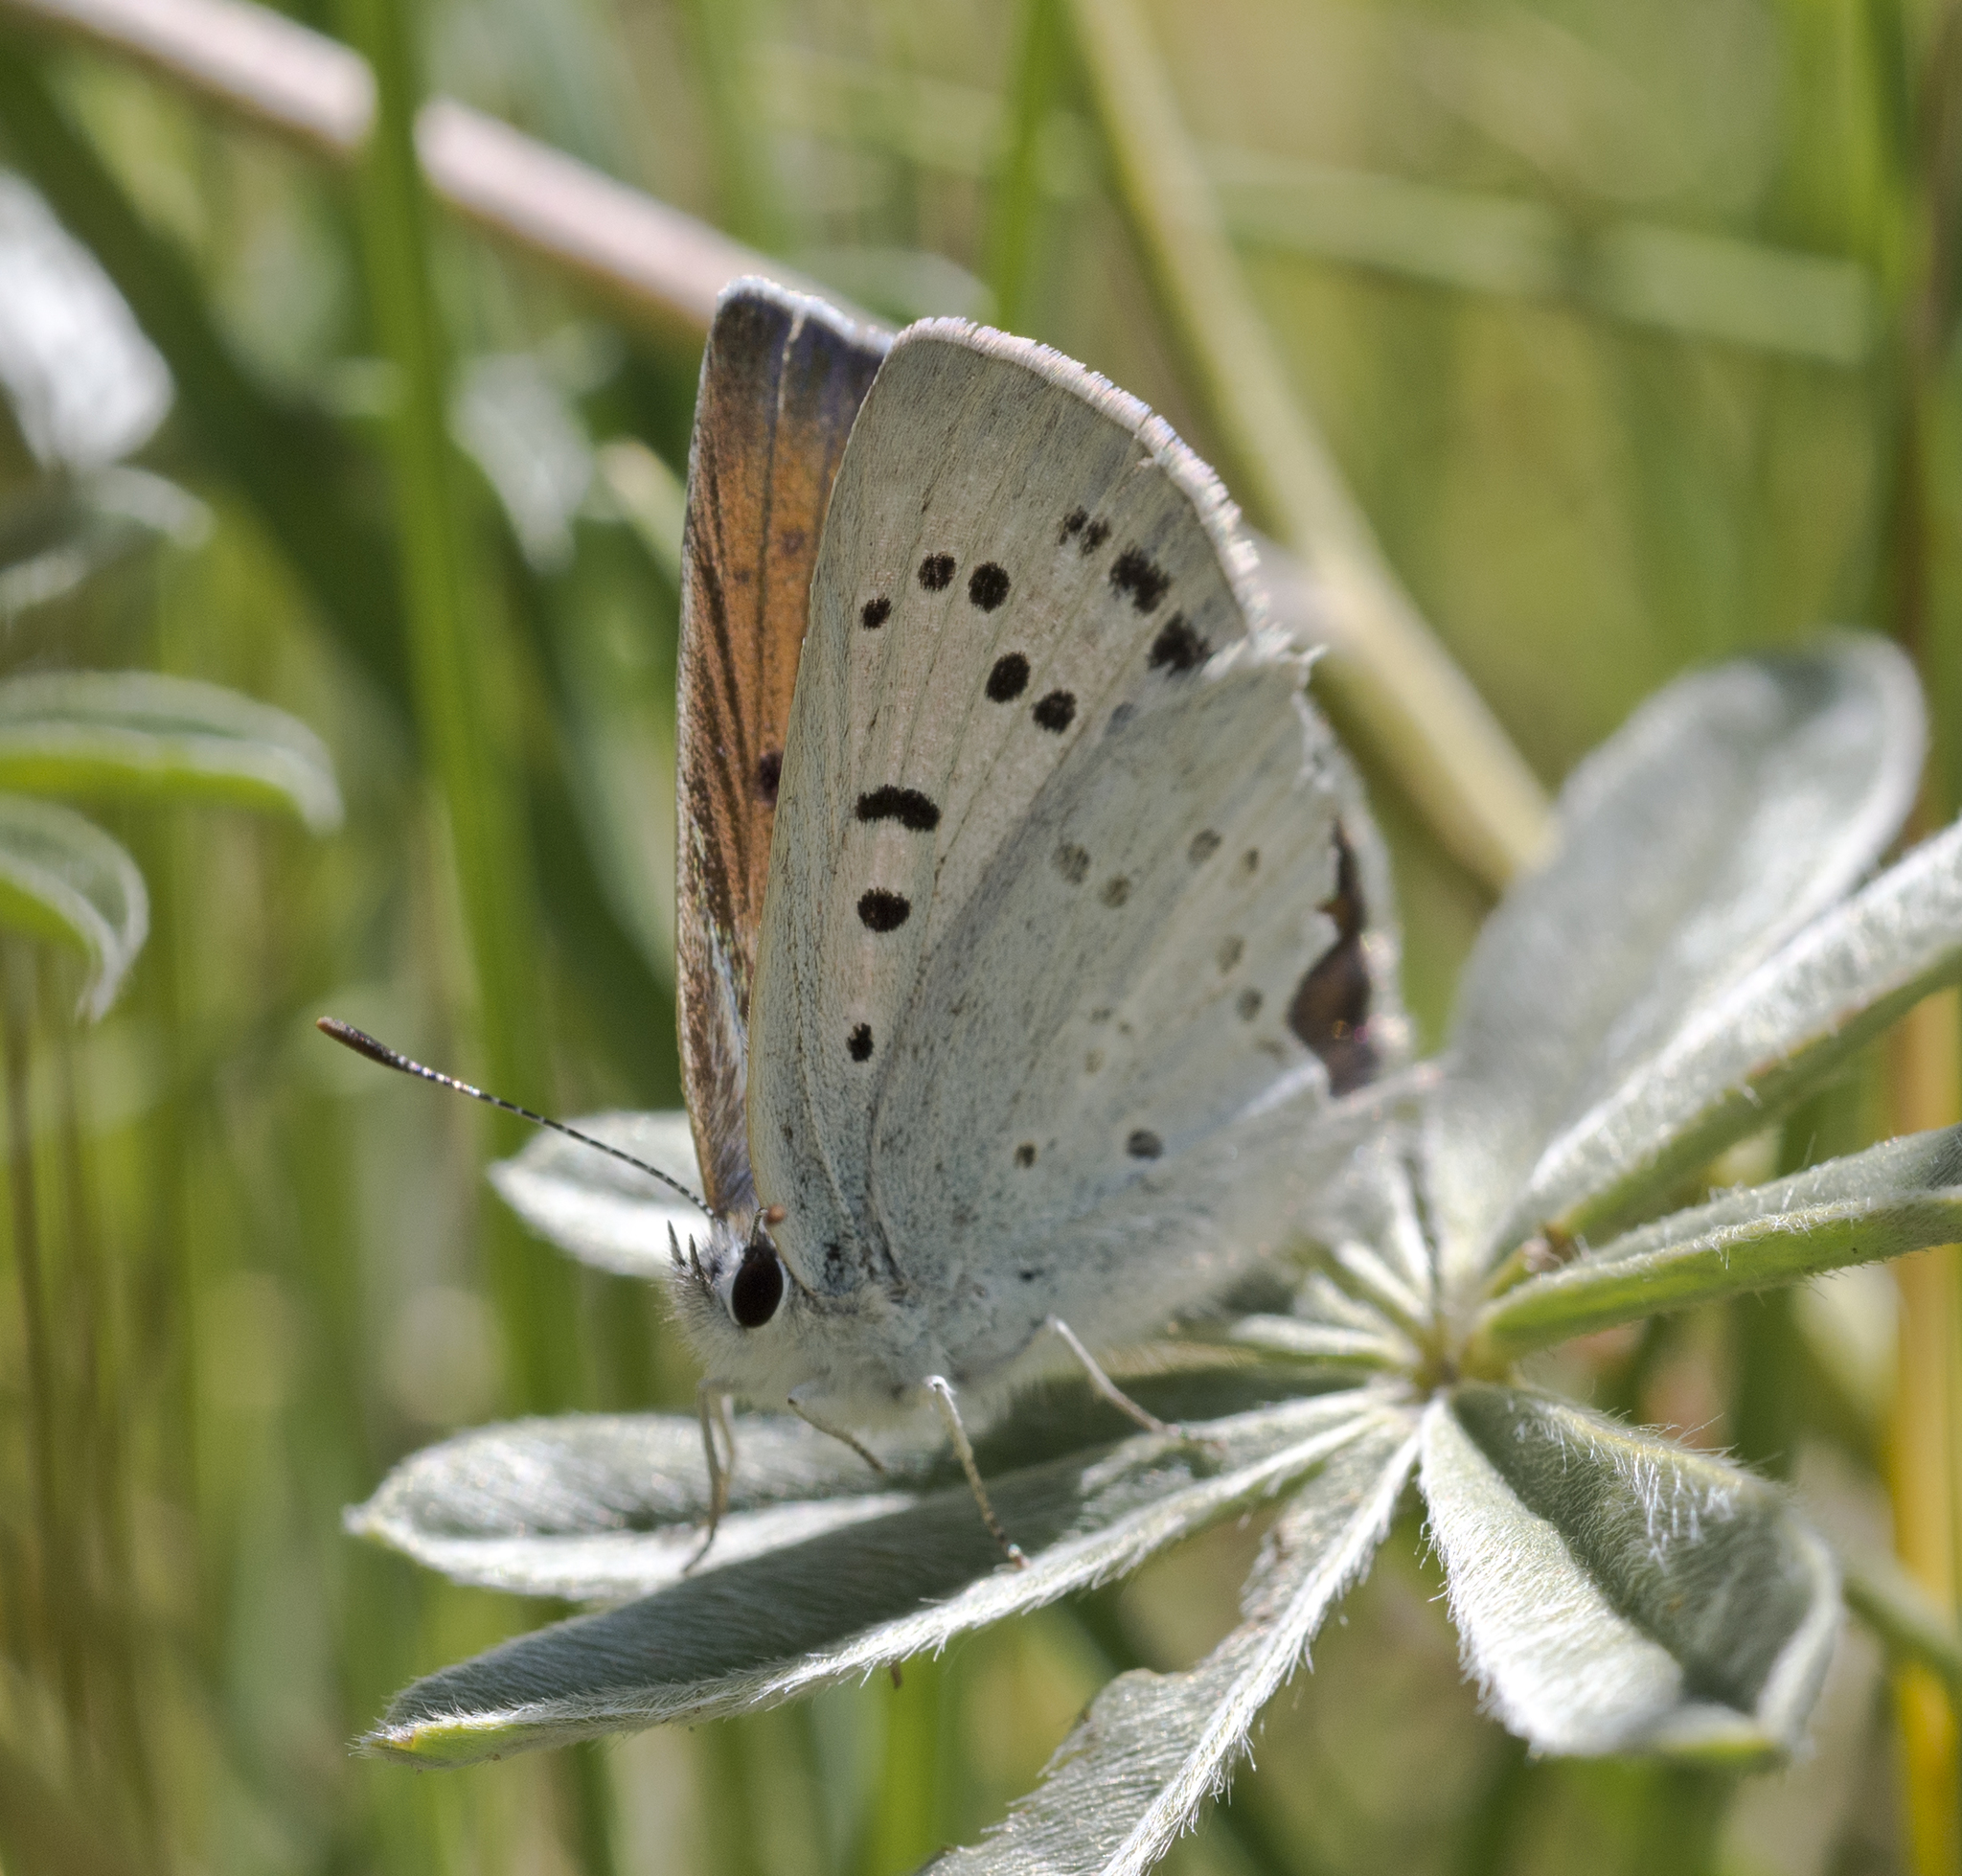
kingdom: Animalia
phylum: Arthropoda
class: Insecta
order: Lepidoptera
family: Lycaenidae
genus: Tharsalea
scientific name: Tharsalea heteronea
